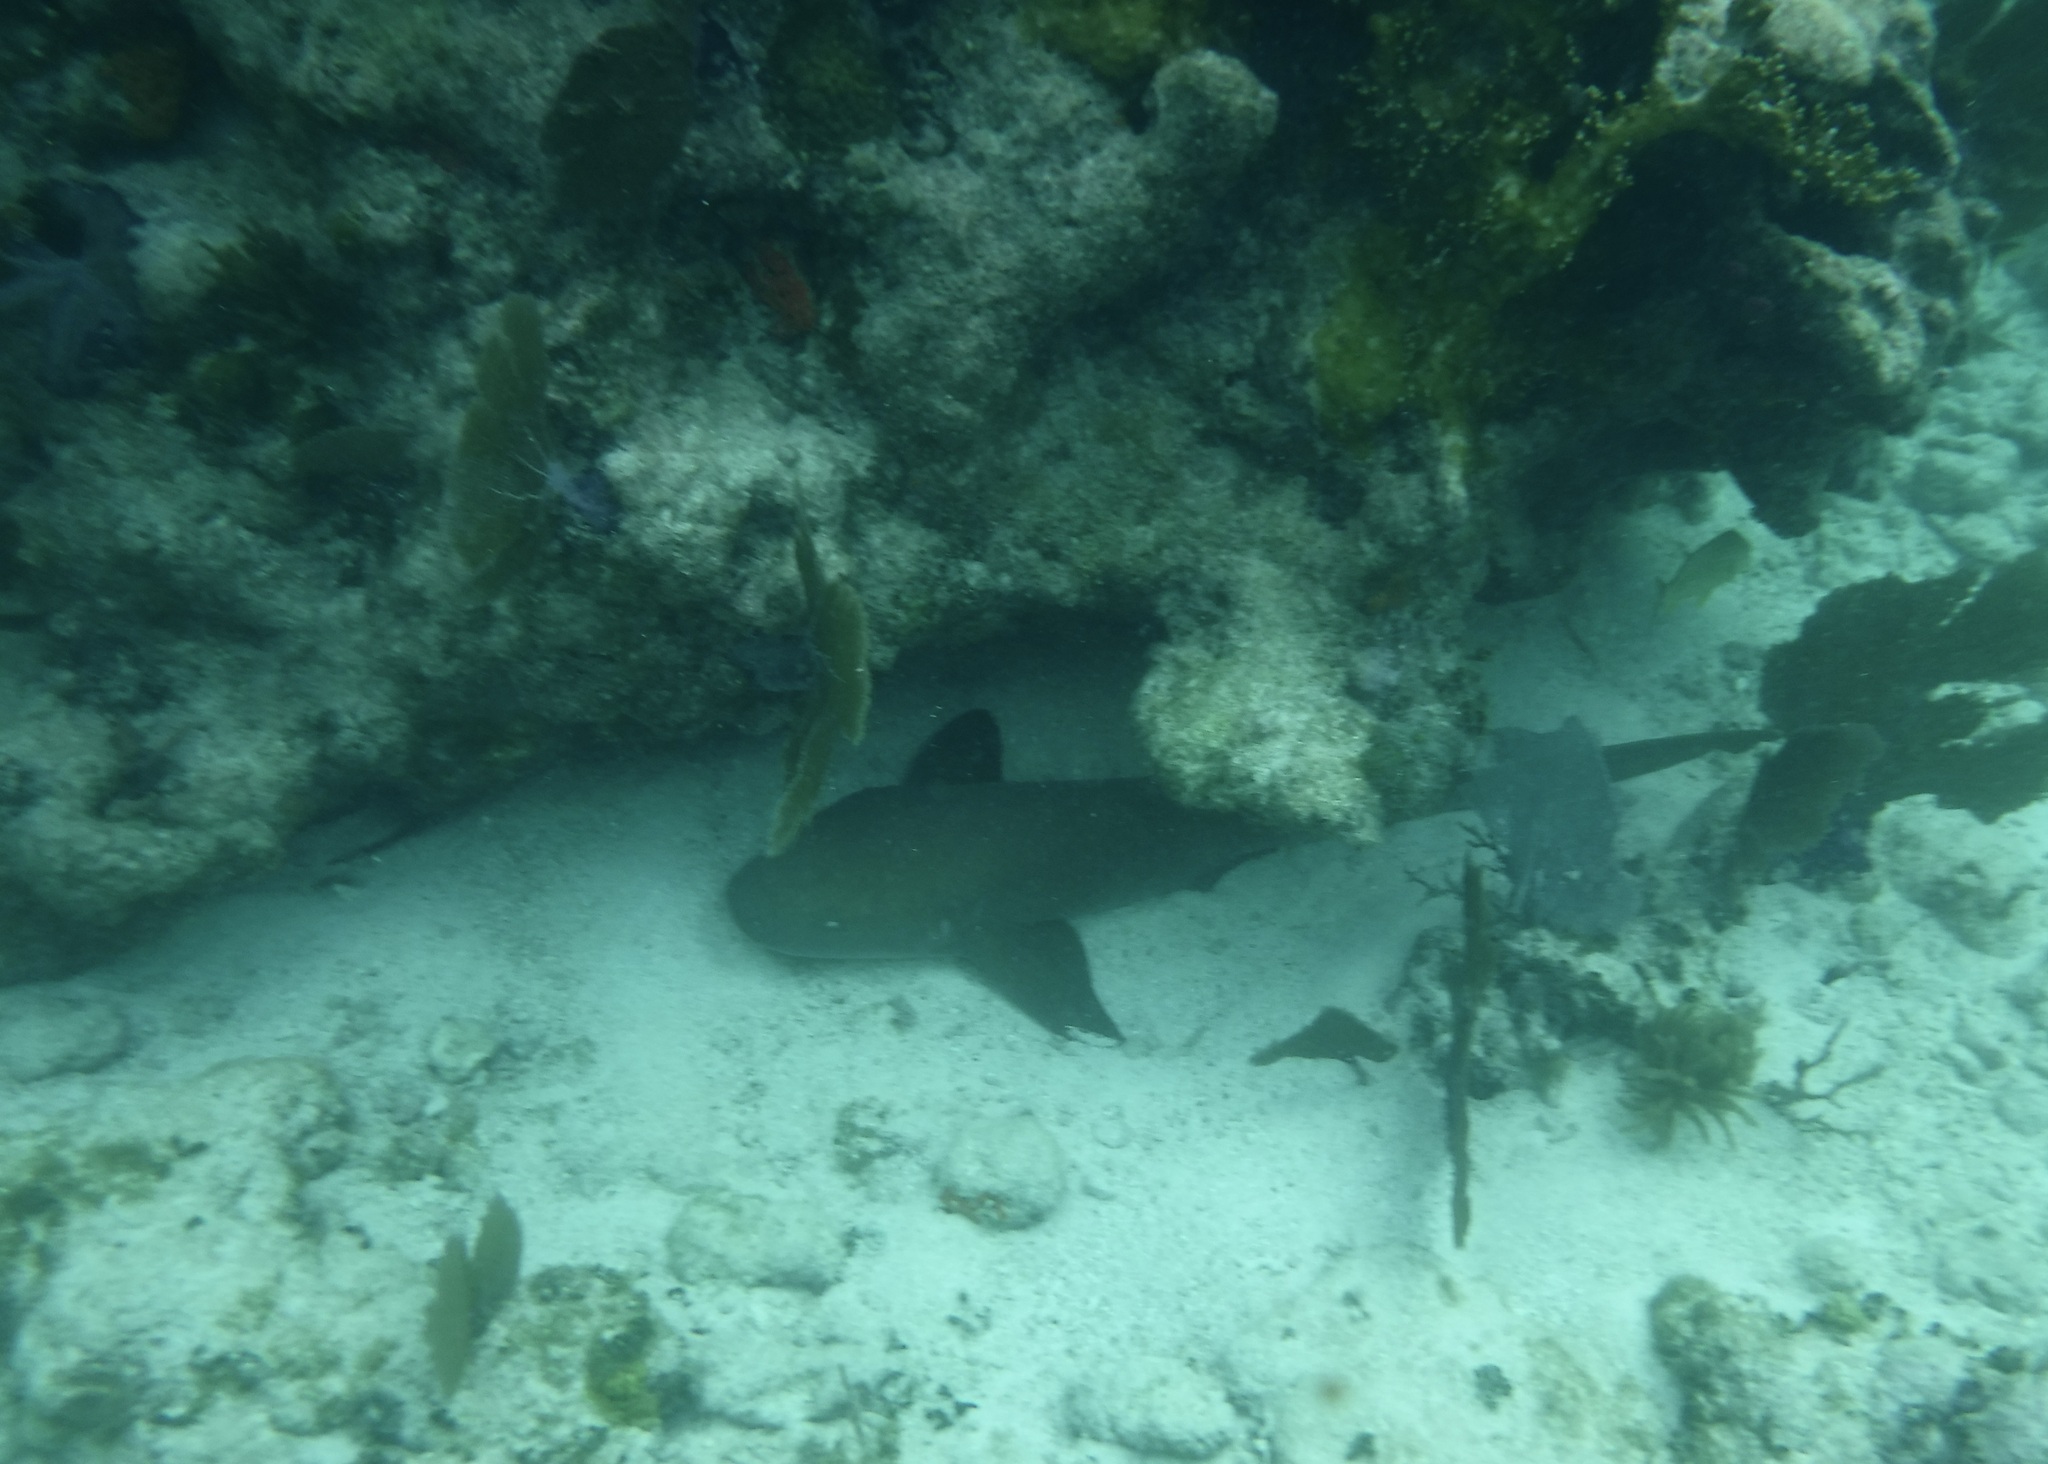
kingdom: Animalia
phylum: Chordata
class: Elasmobranchii
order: Orectolobiformes
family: Ginglymostomatidae
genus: Ginglymostoma
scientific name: Ginglymostoma cirratum
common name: Nurse shark
